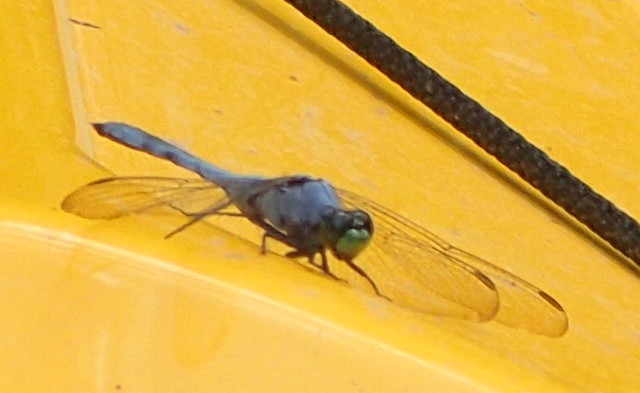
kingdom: Animalia
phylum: Arthropoda
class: Insecta
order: Odonata
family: Libellulidae
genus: Erythemis
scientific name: Erythemis simplicicollis
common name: Eastern pondhawk
